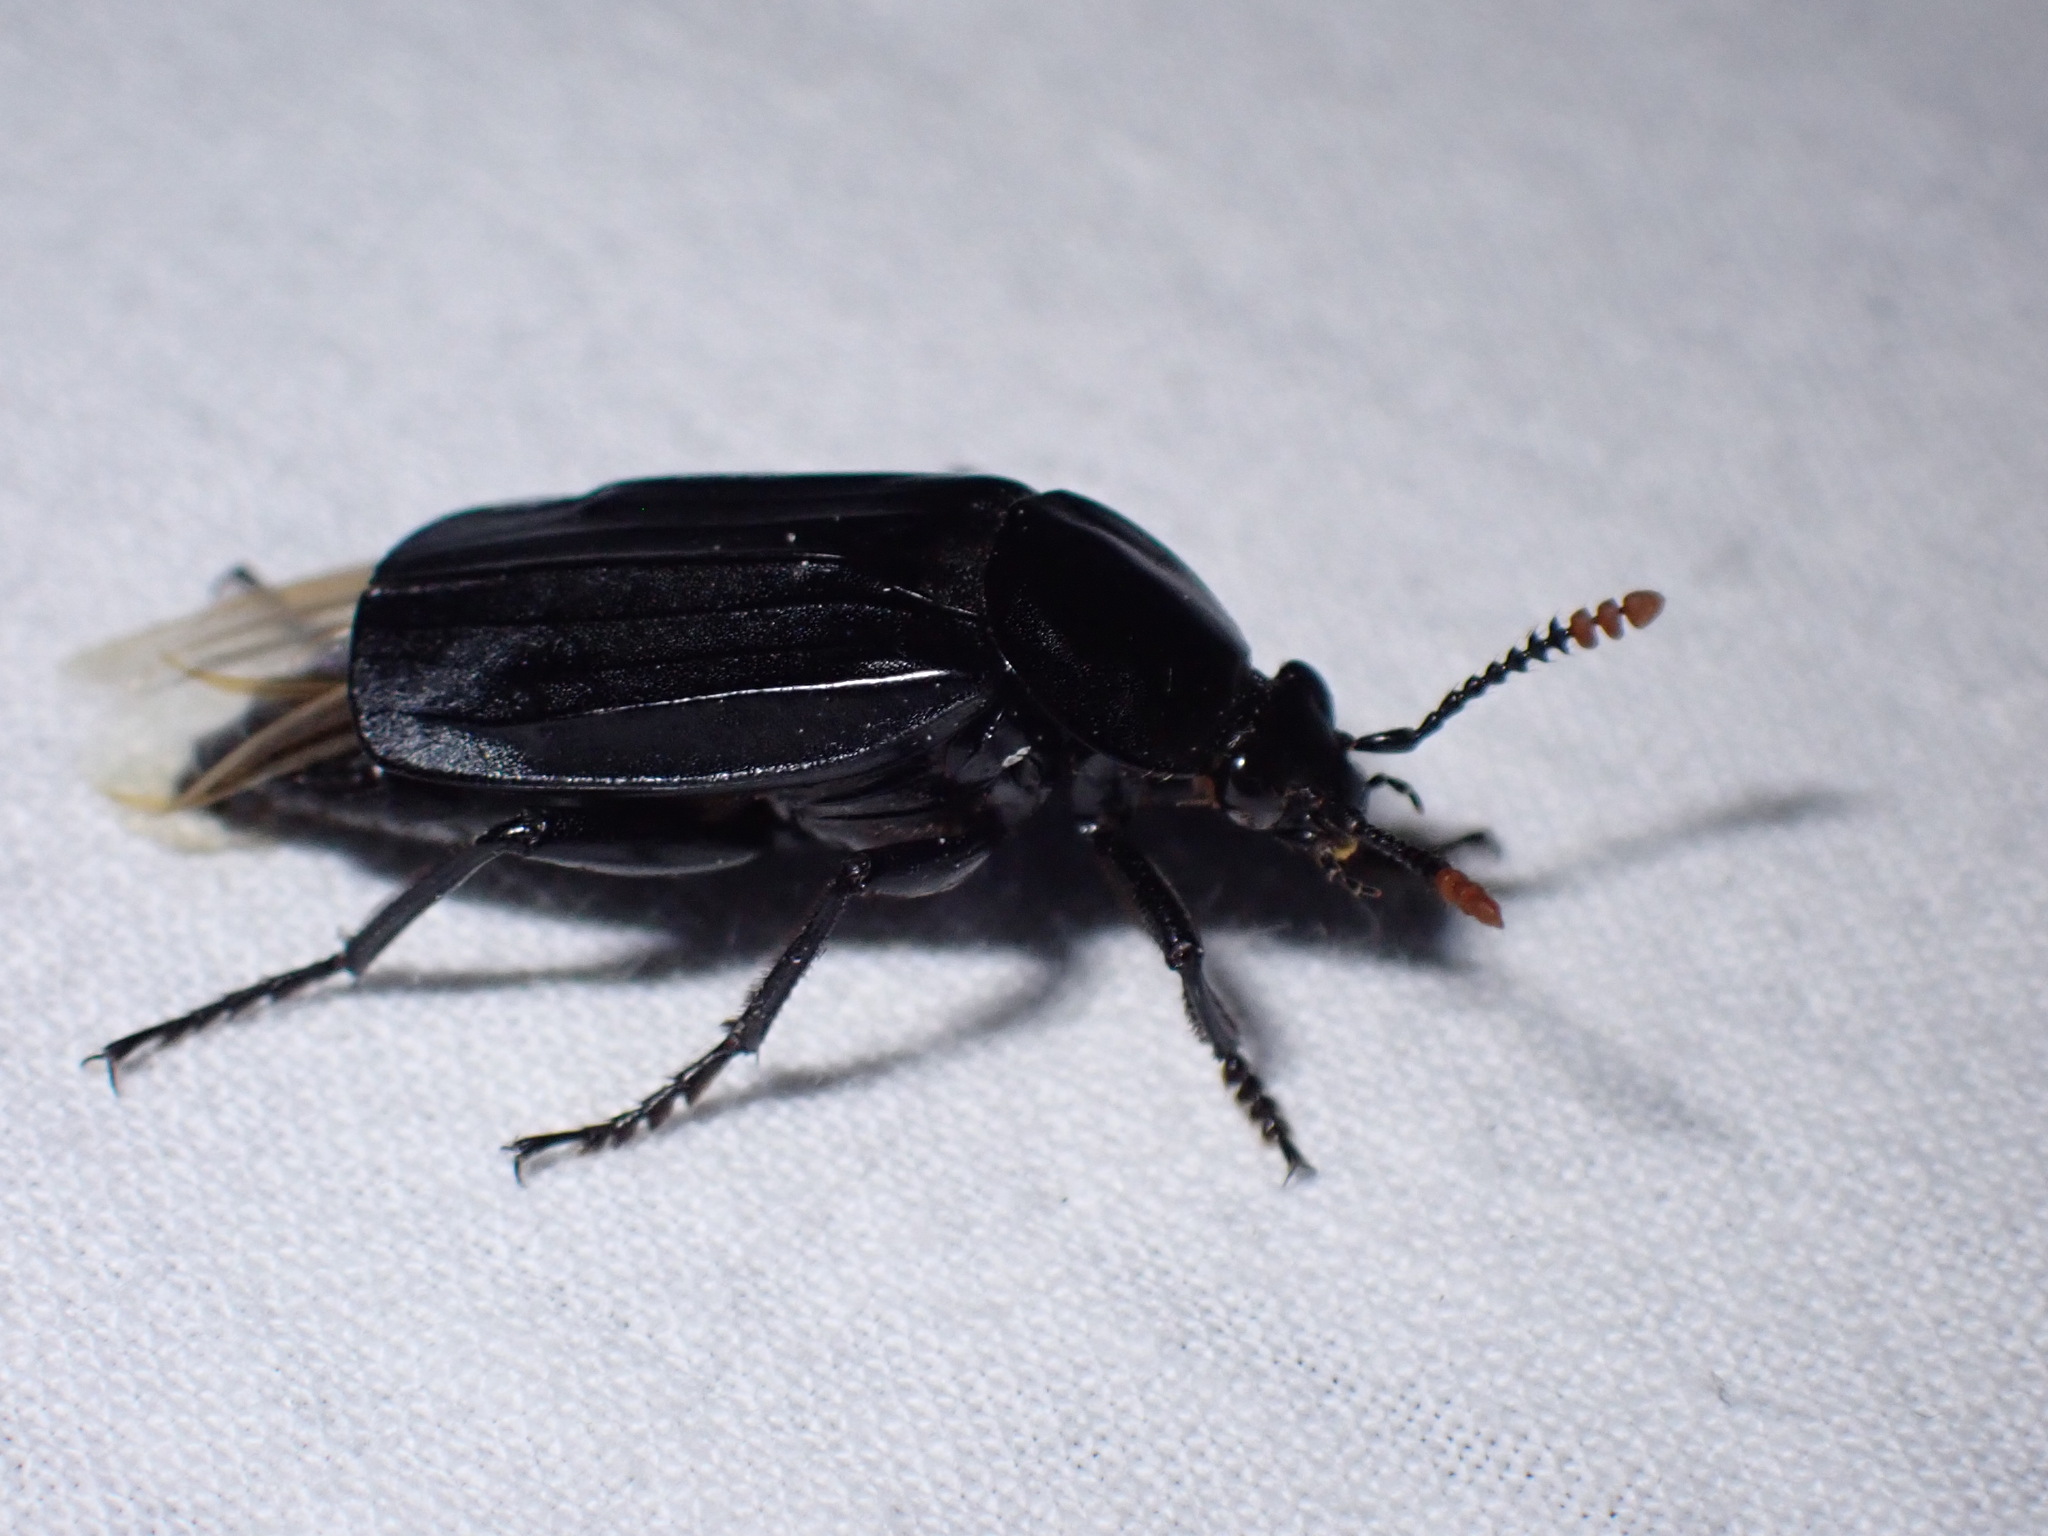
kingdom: Animalia
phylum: Arthropoda
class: Insecta
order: Coleoptera
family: Staphylinidae
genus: Necrodes
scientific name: Necrodes littoralis
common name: Shore sexton beetle
